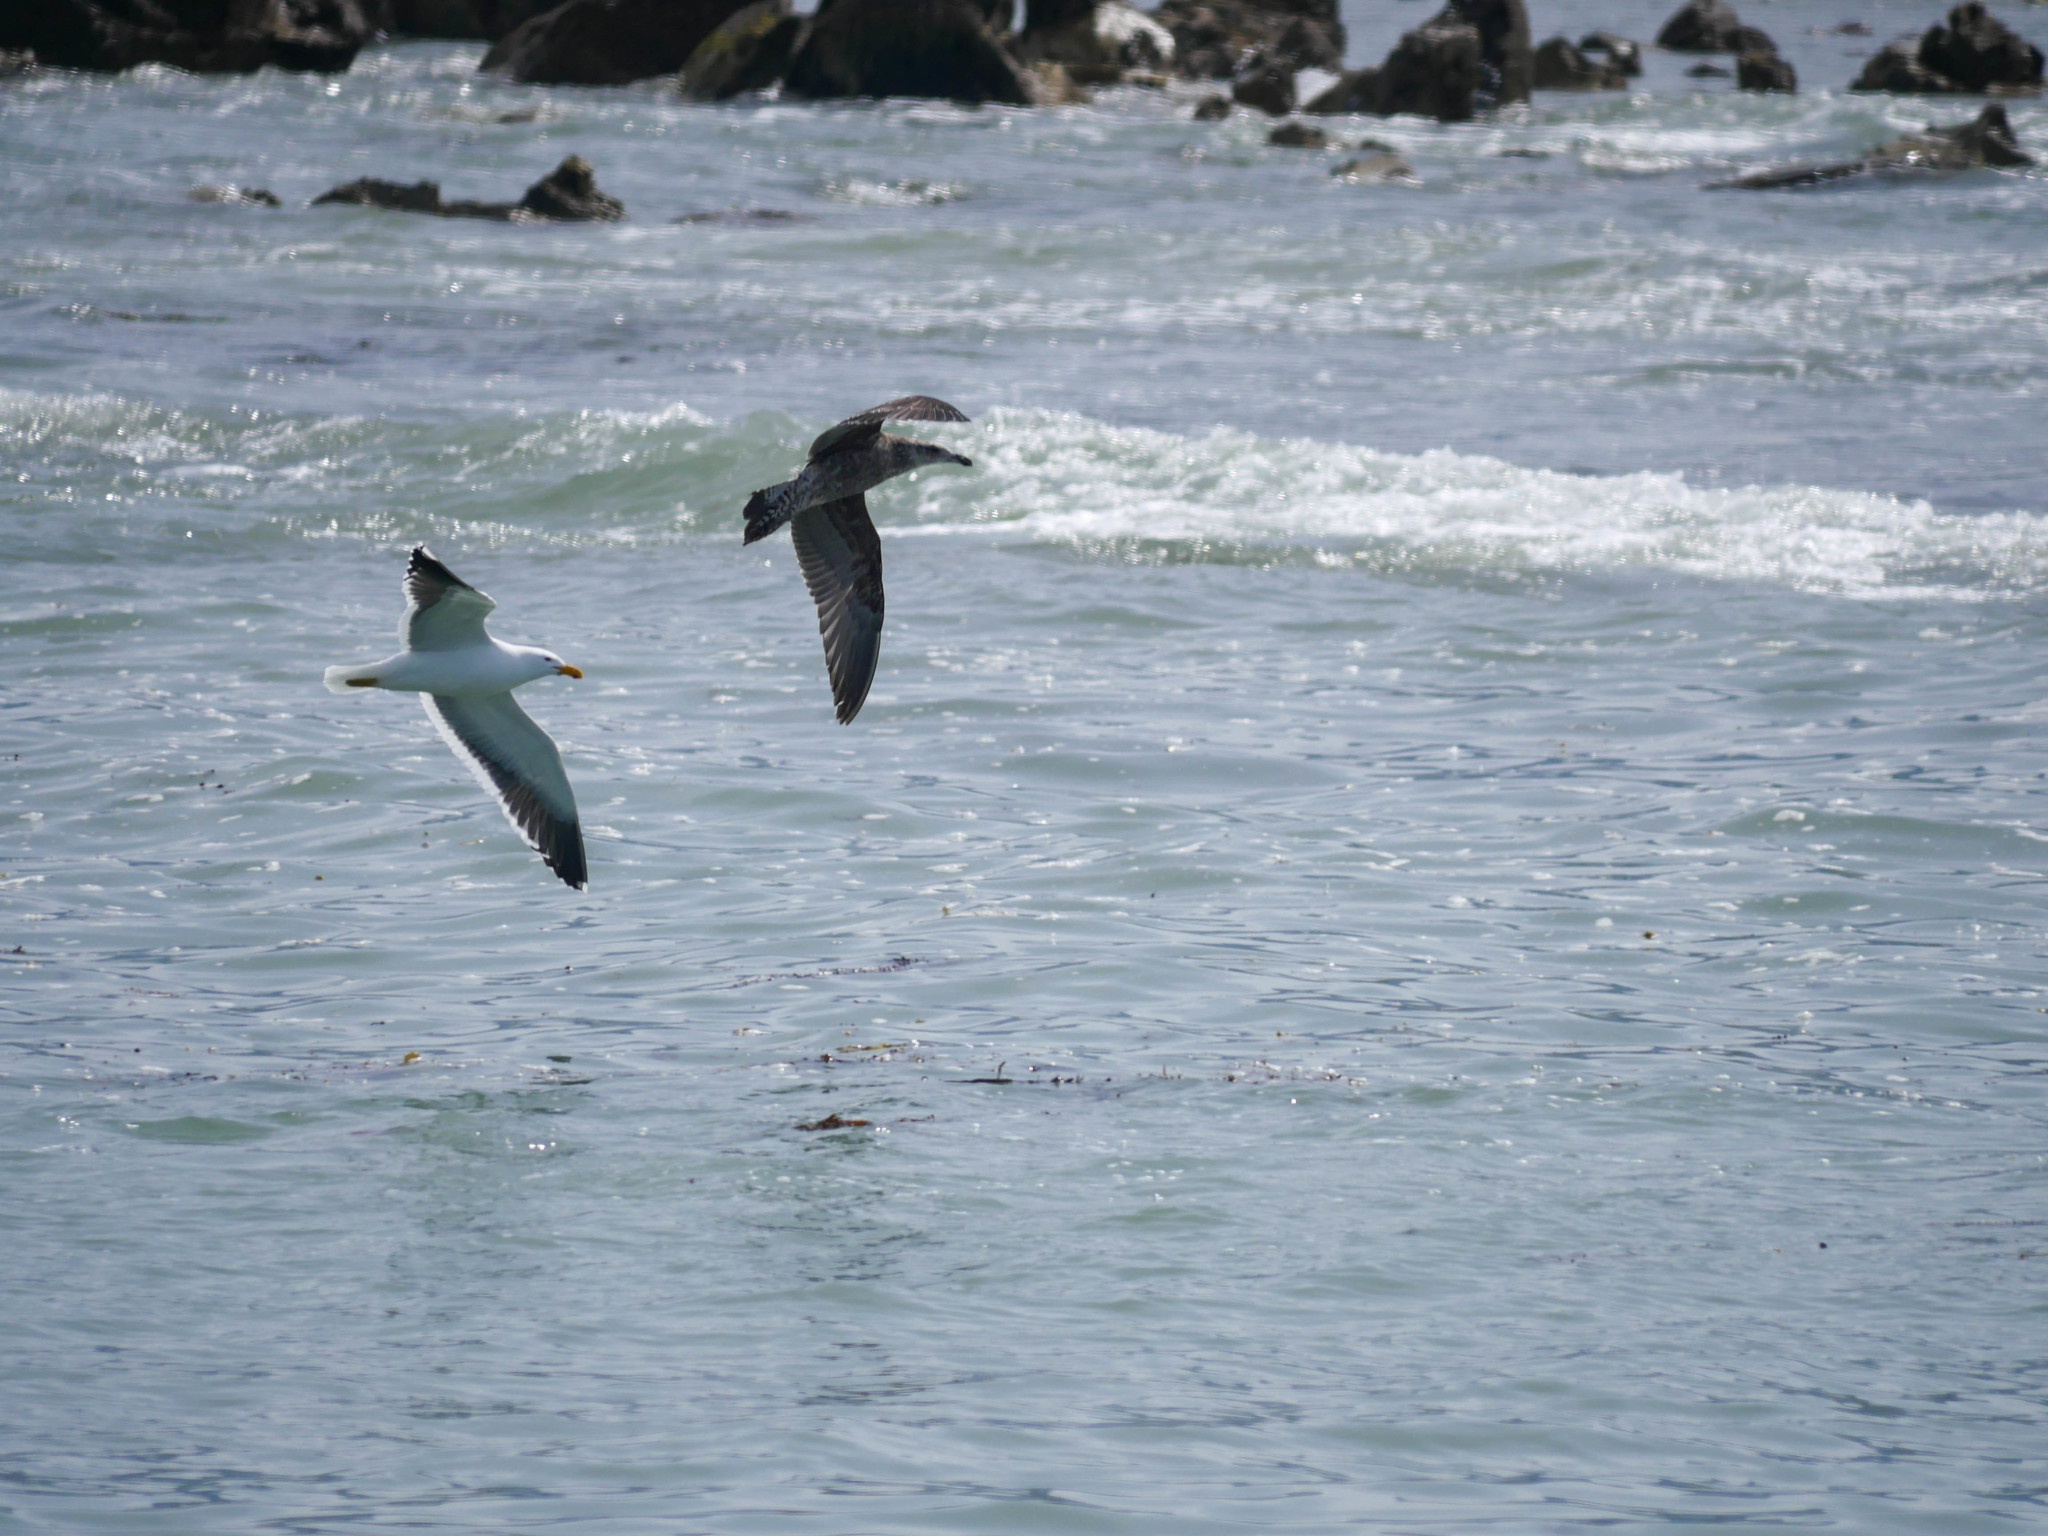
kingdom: Animalia
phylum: Chordata
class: Aves
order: Charadriiformes
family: Laridae
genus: Larus
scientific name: Larus dominicanus
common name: Kelp gull
